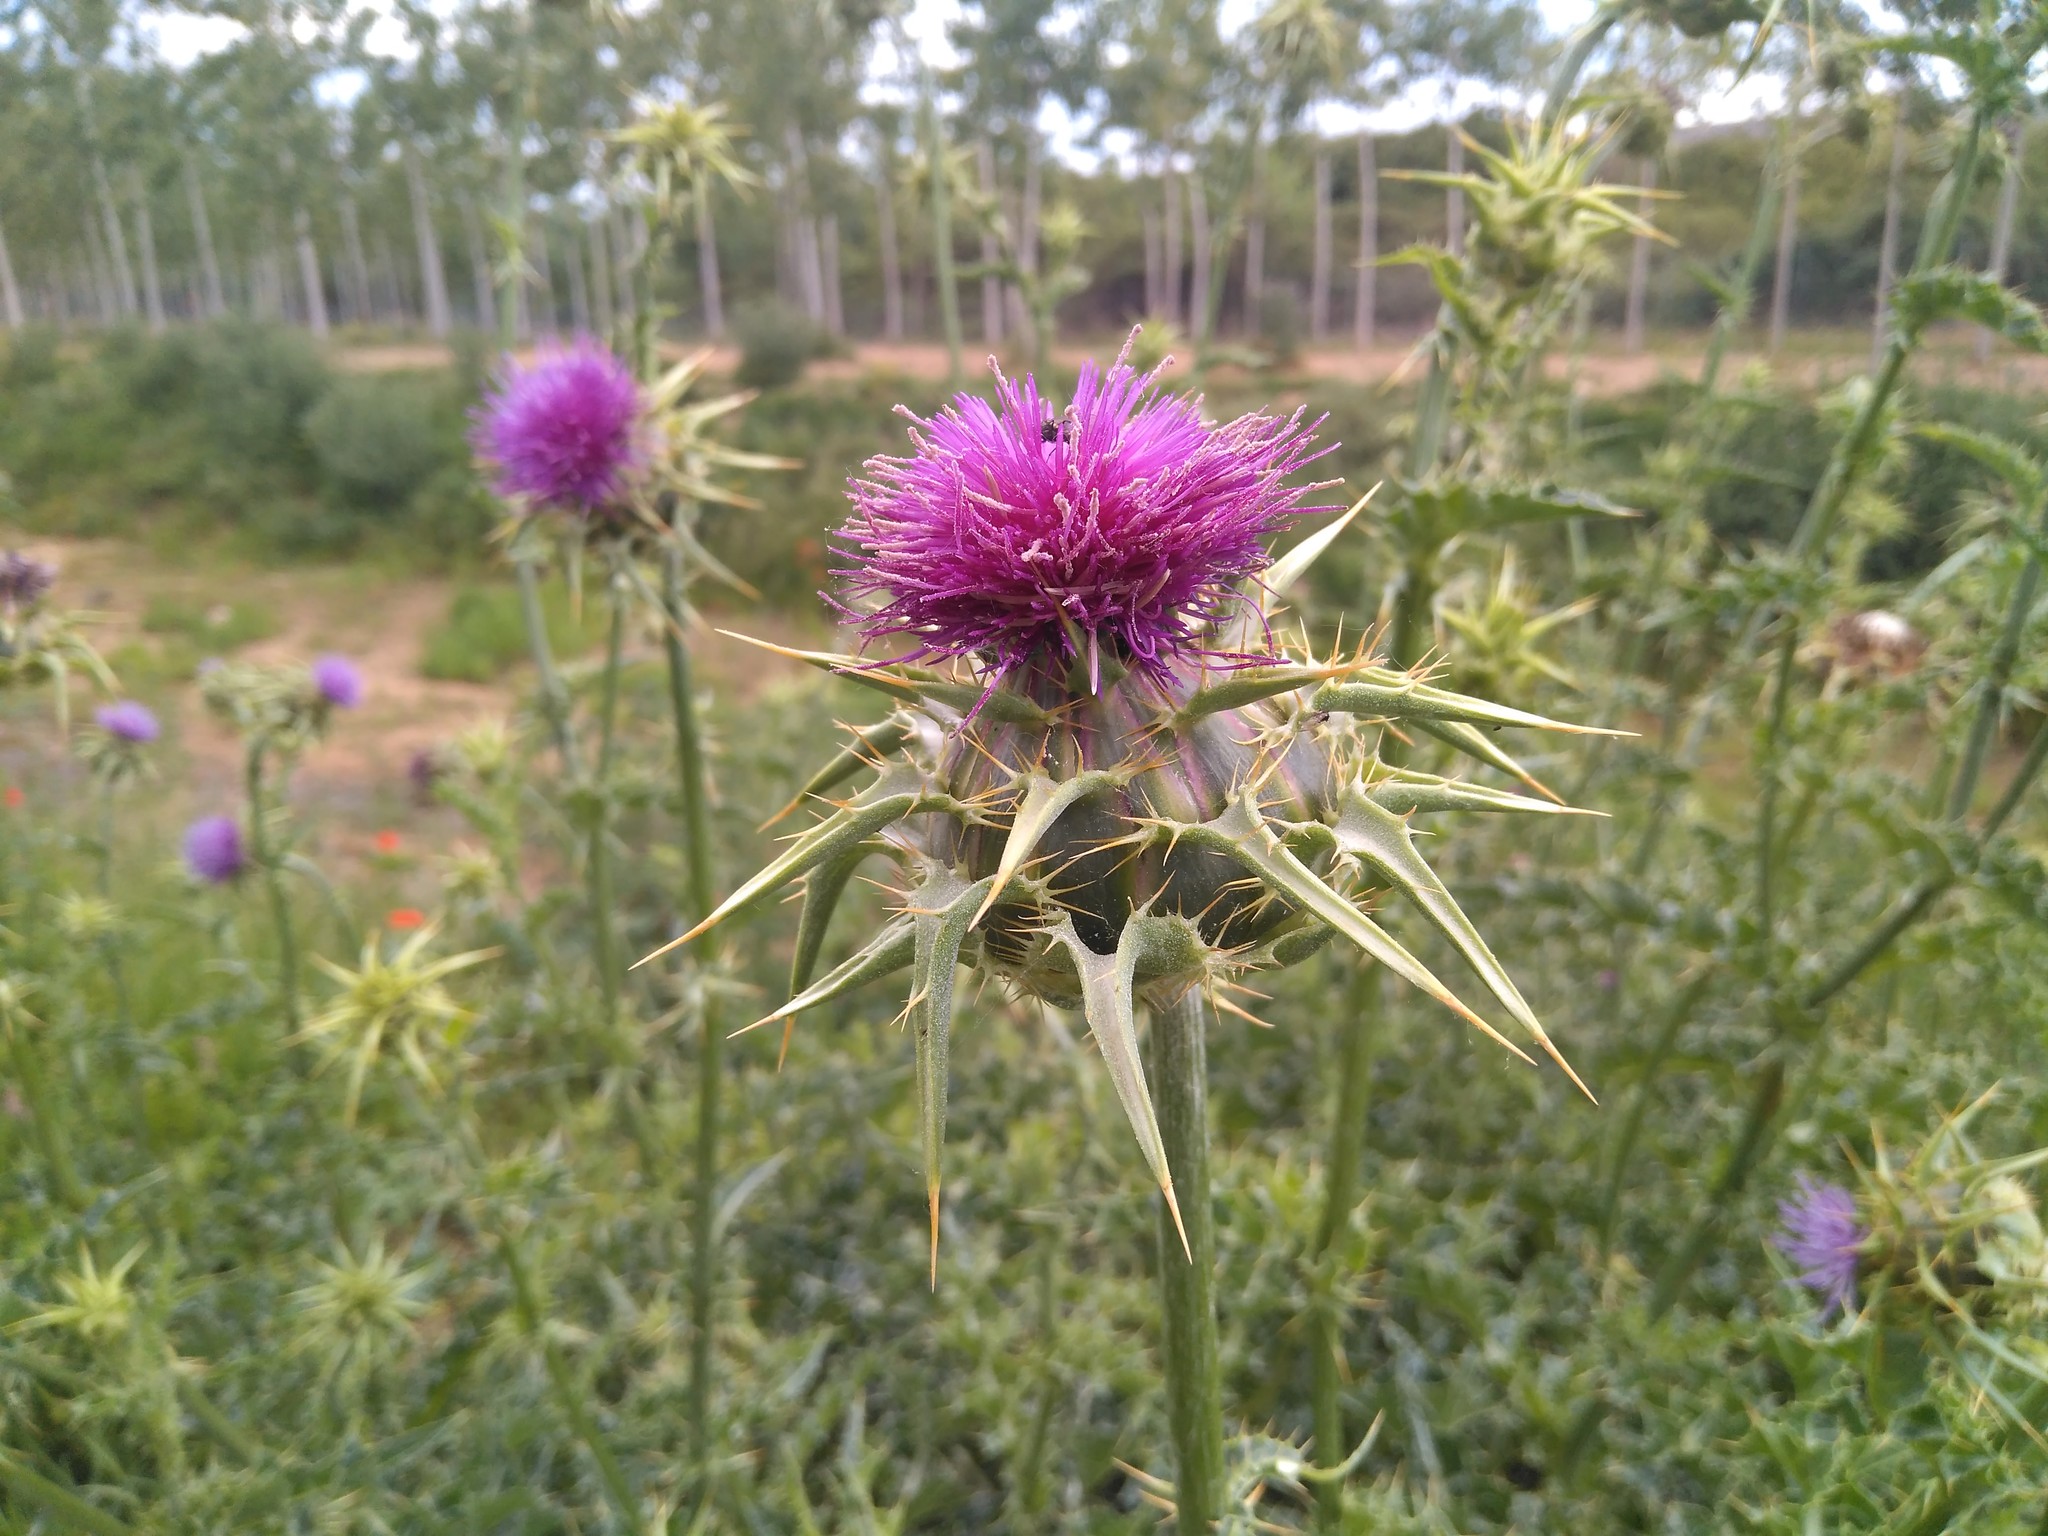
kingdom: Plantae
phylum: Tracheophyta
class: Magnoliopsida
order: Asterales
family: Asteraceae
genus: Silybum
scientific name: Silybum marianum
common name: Milk thistle
